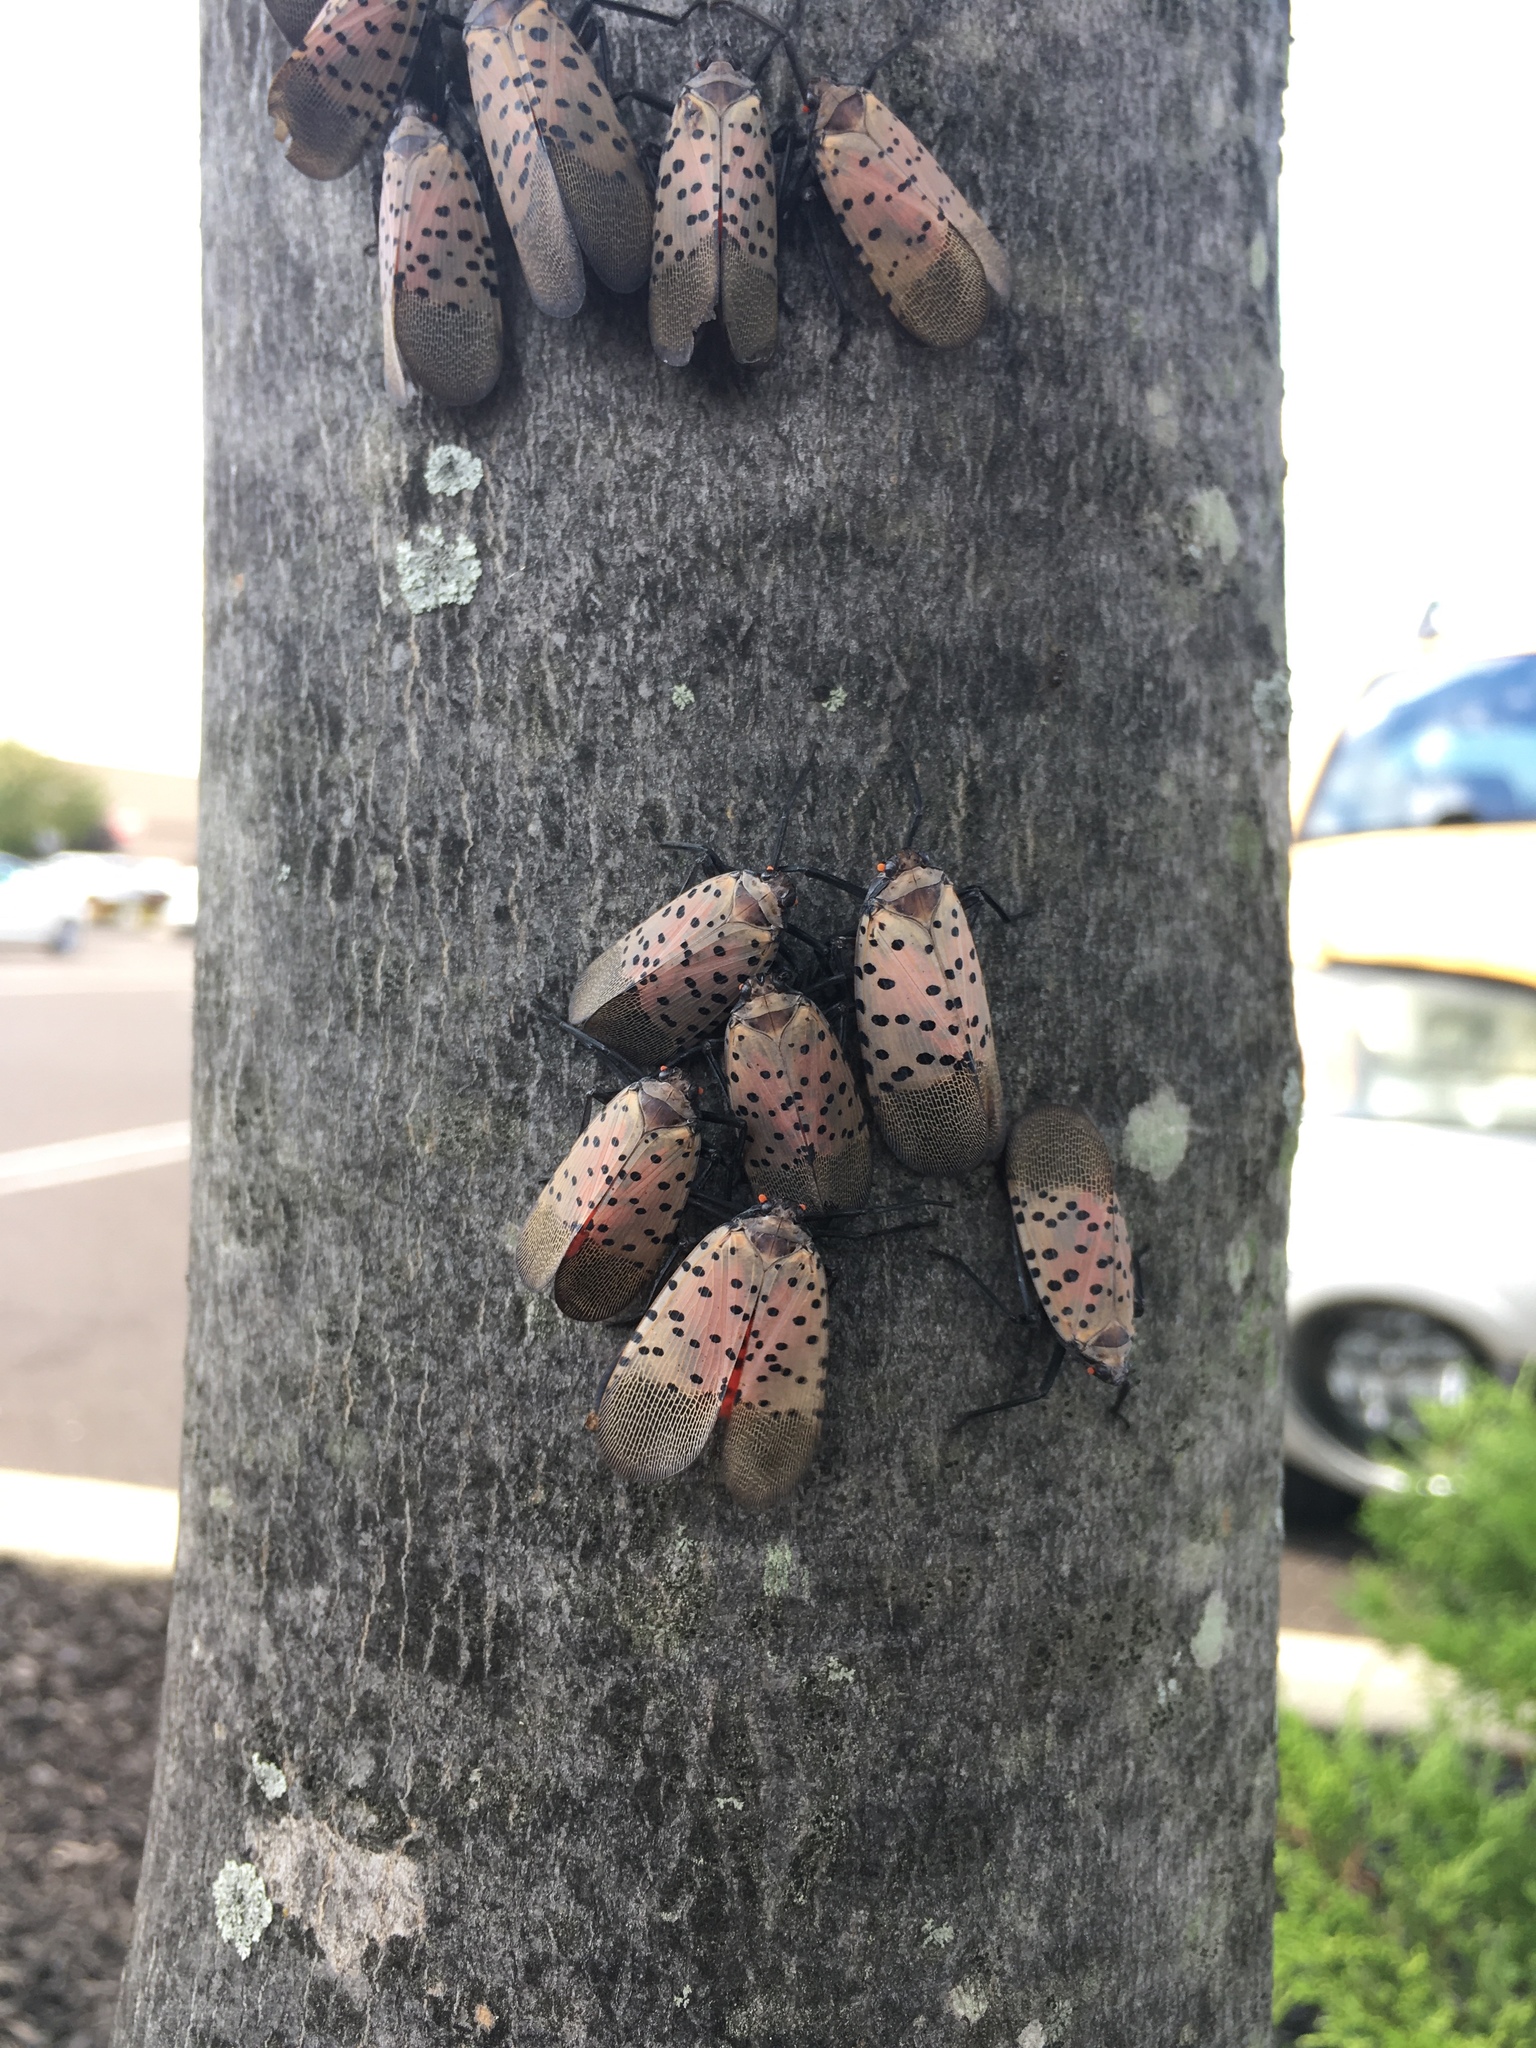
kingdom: Animalia
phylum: Arthropoda
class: Insecta
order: Hemiptera
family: Fulgoridae
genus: Lycorma
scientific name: Lycorma delicatula
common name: Spotted lanternfly
